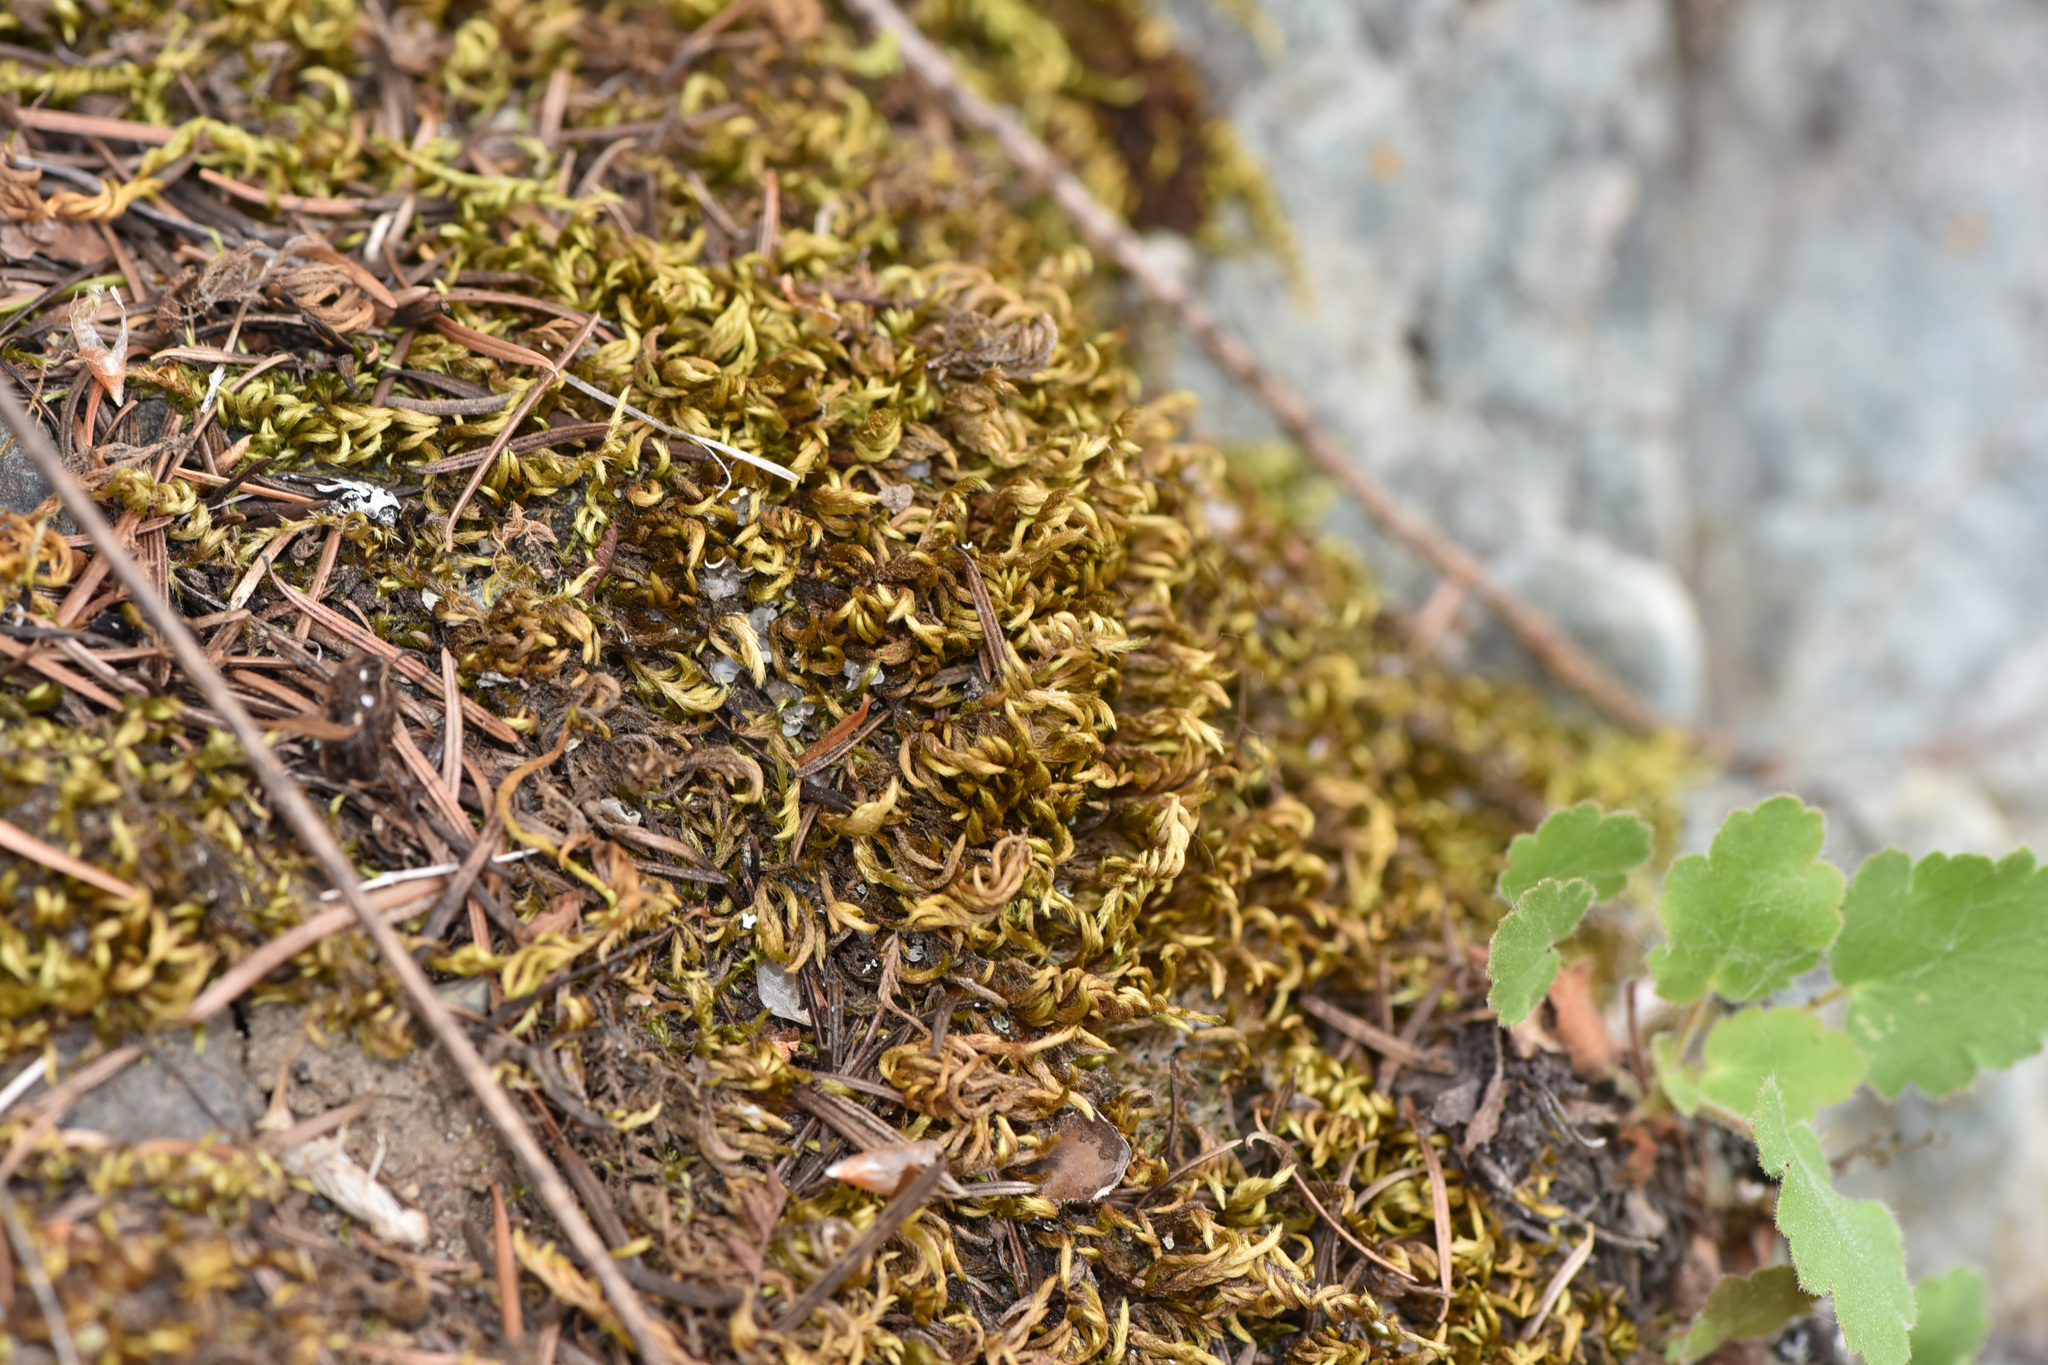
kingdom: Plantae
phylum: Tracheophyta
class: Magnoliopsida
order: Saxifragales
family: Saxifragaceae
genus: Heuchera
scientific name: Heuchera cylindrica
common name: Mat alumroot
